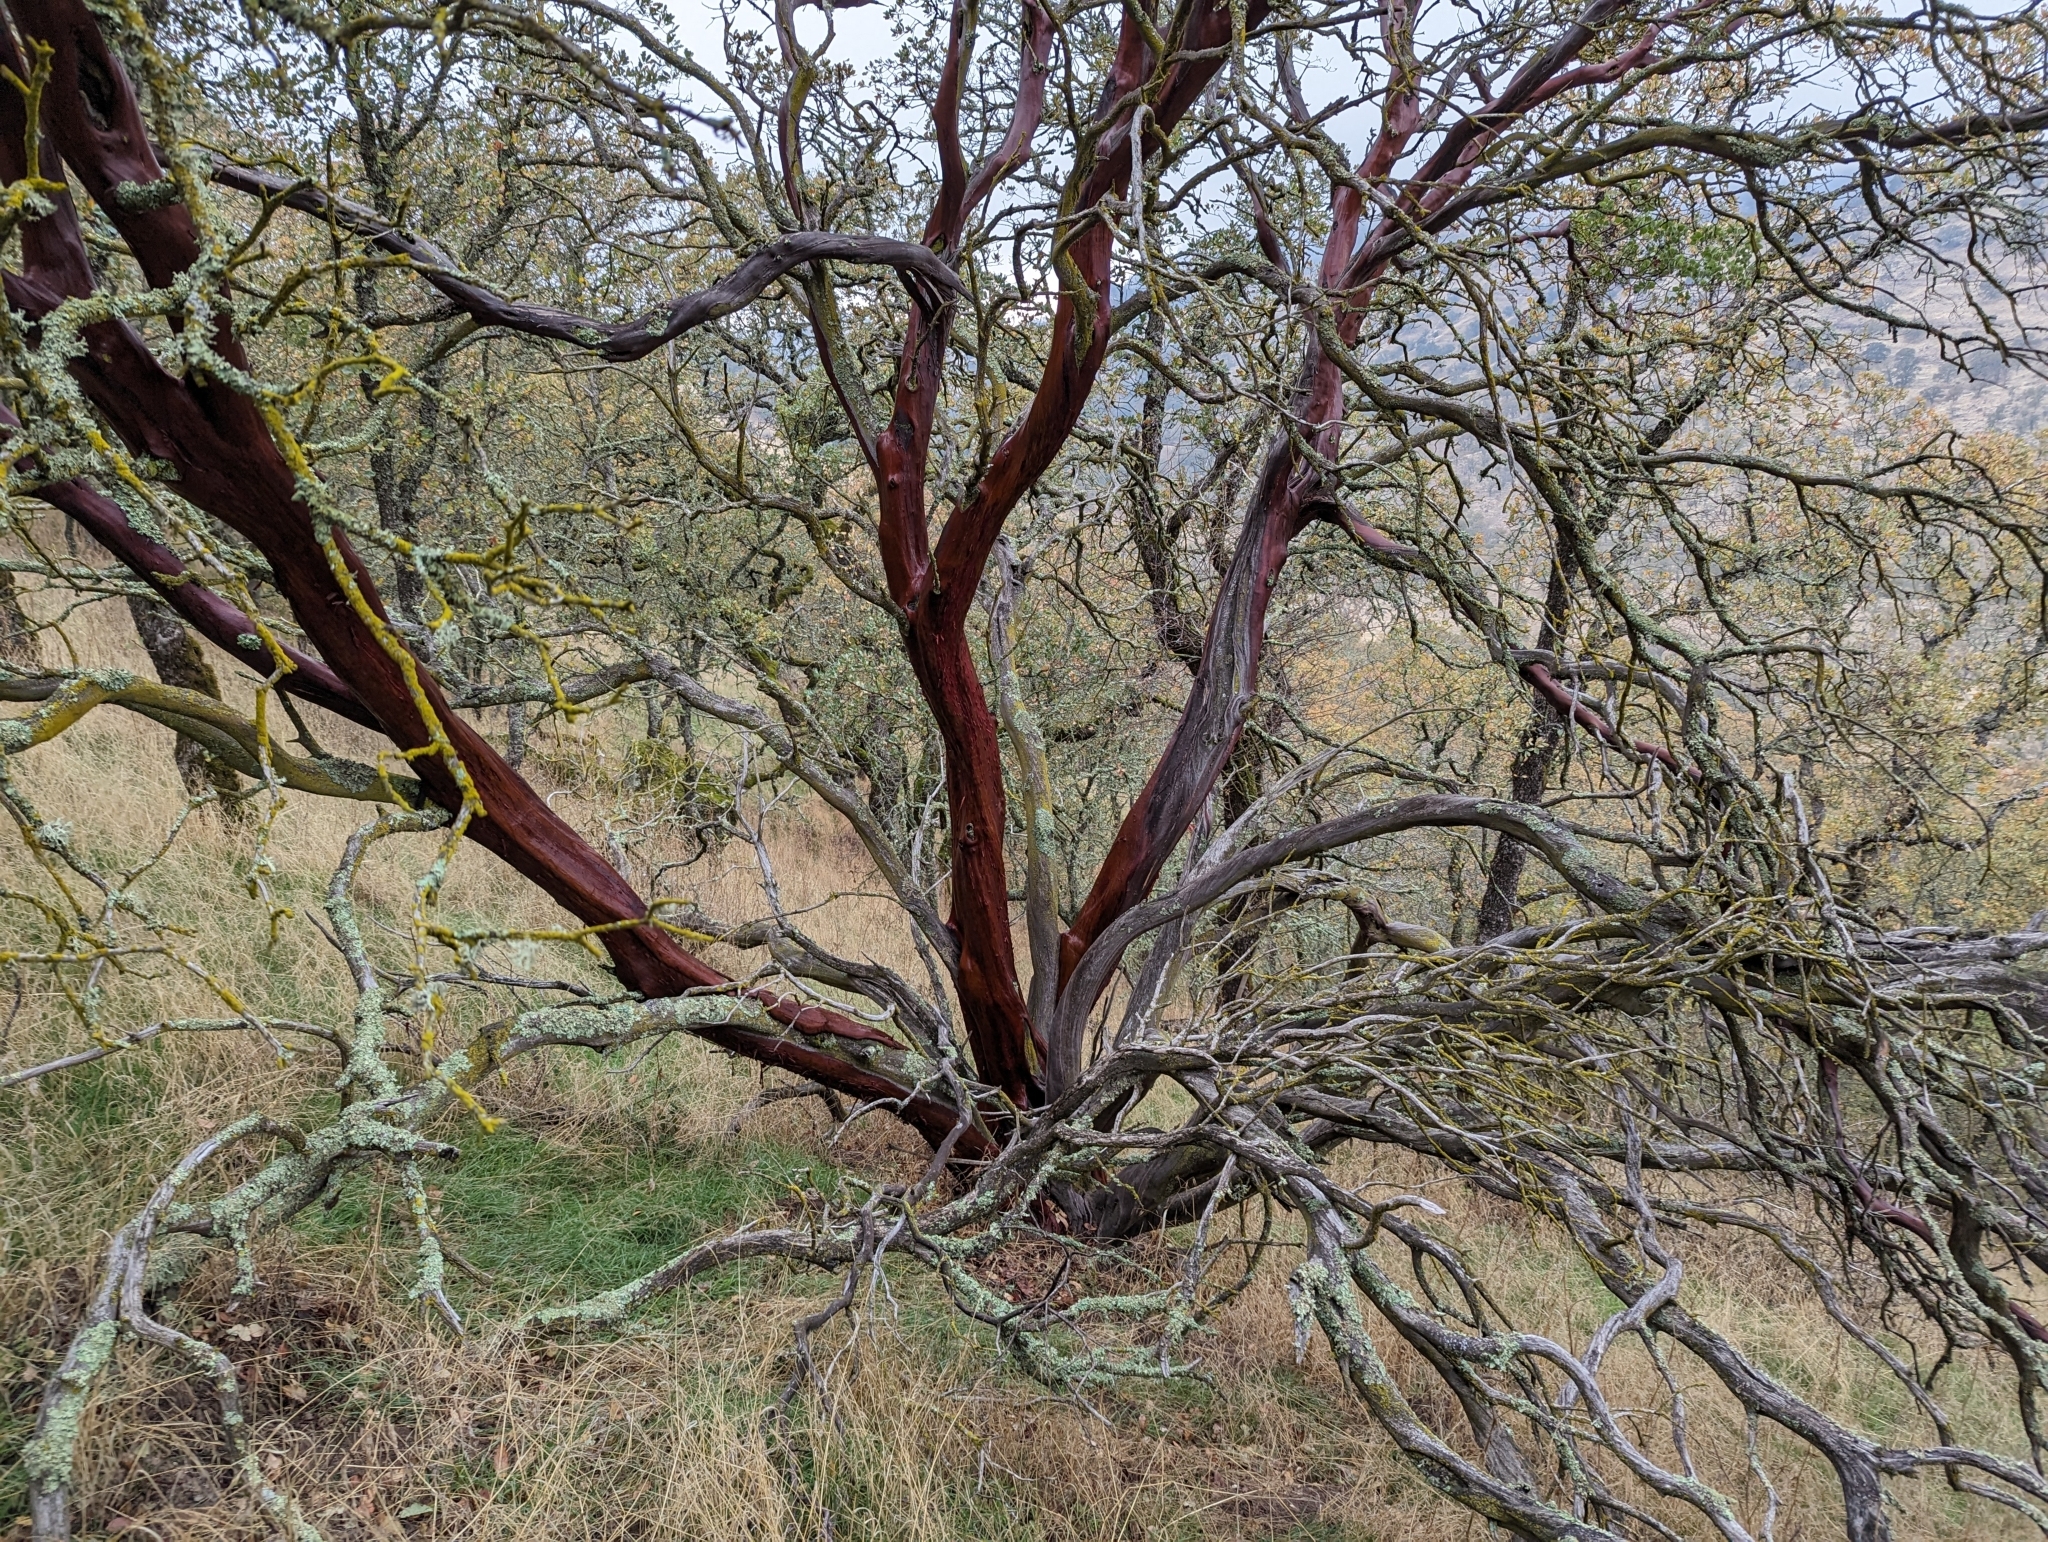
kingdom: Plantae
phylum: Tracheophyta
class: Magnoliopsida
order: Ericales
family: Ericaceae
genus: Arctostaphylos
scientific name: Arctostaphylos manzanita
